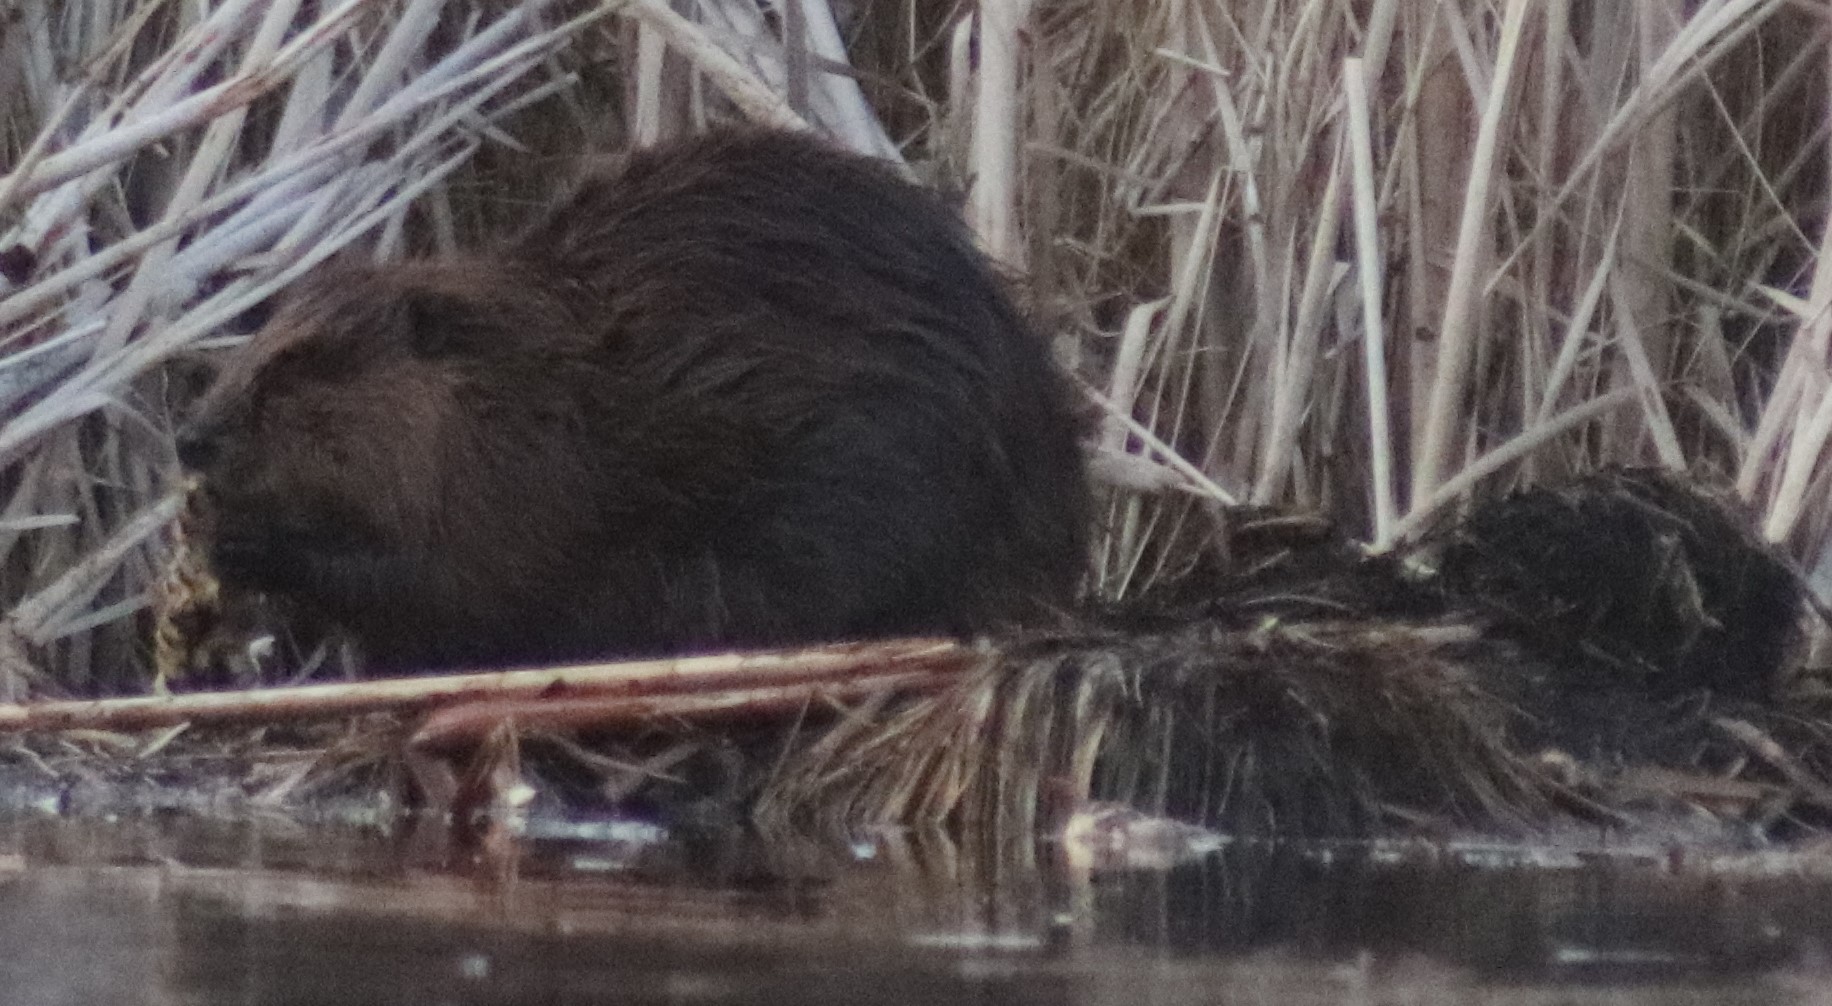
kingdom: Animalia
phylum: Chordata
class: Mammalia
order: Rodentia
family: Castoridae
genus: Castor
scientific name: Castor canadensis
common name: American beaver
